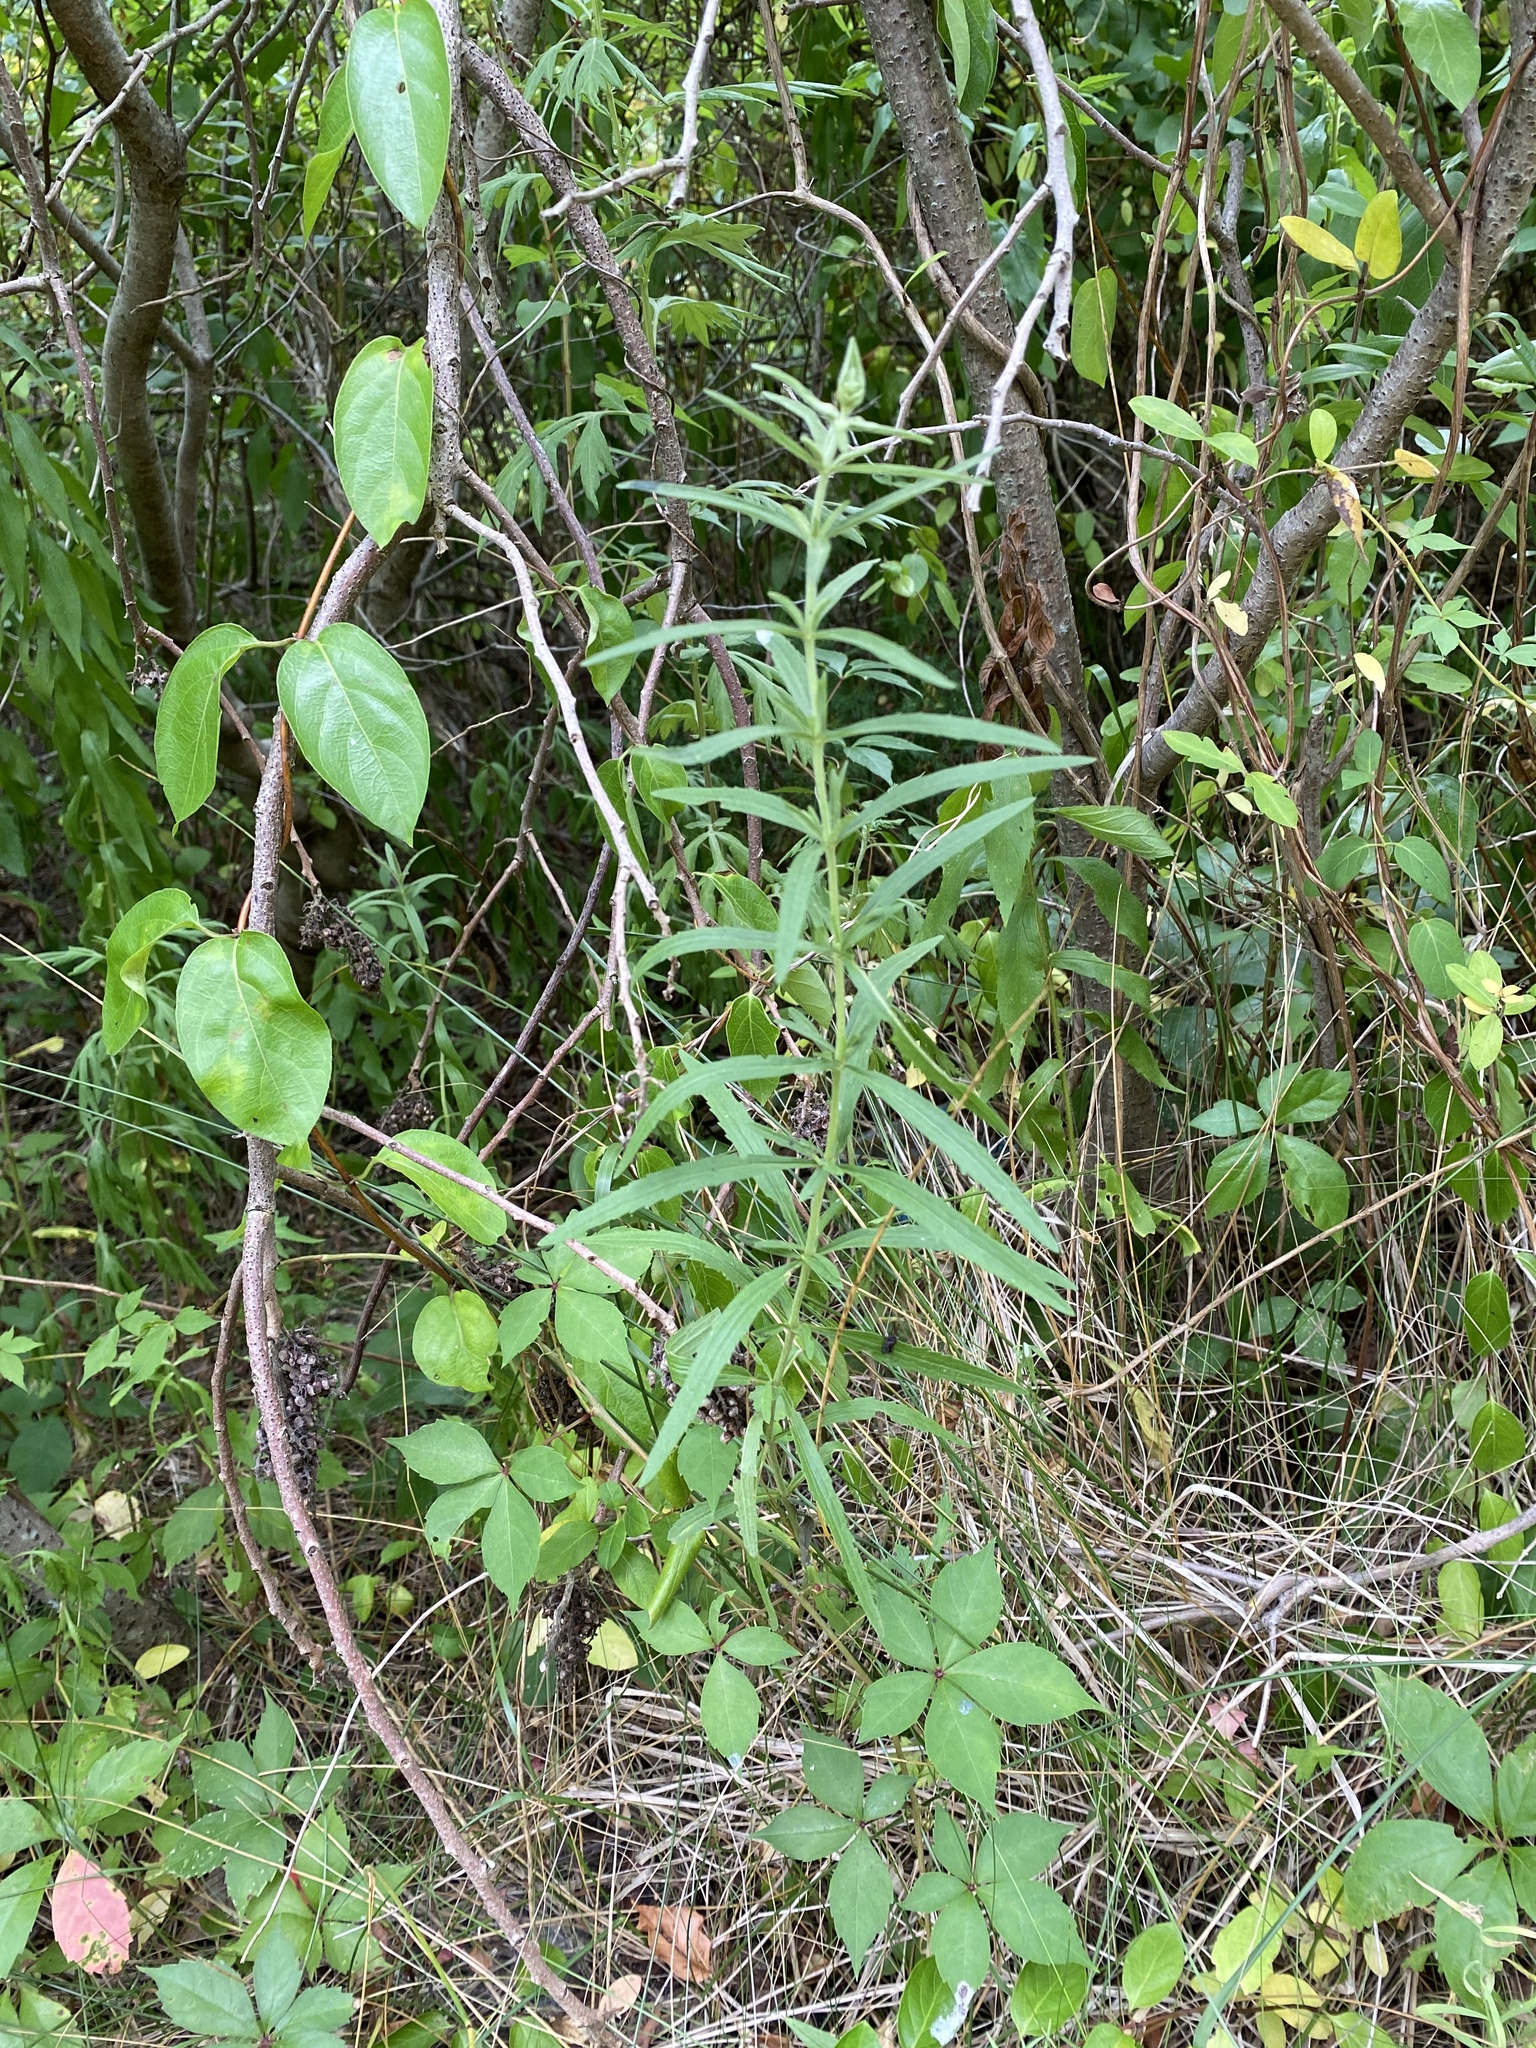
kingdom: Plantae
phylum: Tracheophyta
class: Magnoliopsida
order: Asterales
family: Asteraceae
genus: Eupatorium
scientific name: Eupatorium torreyanum
